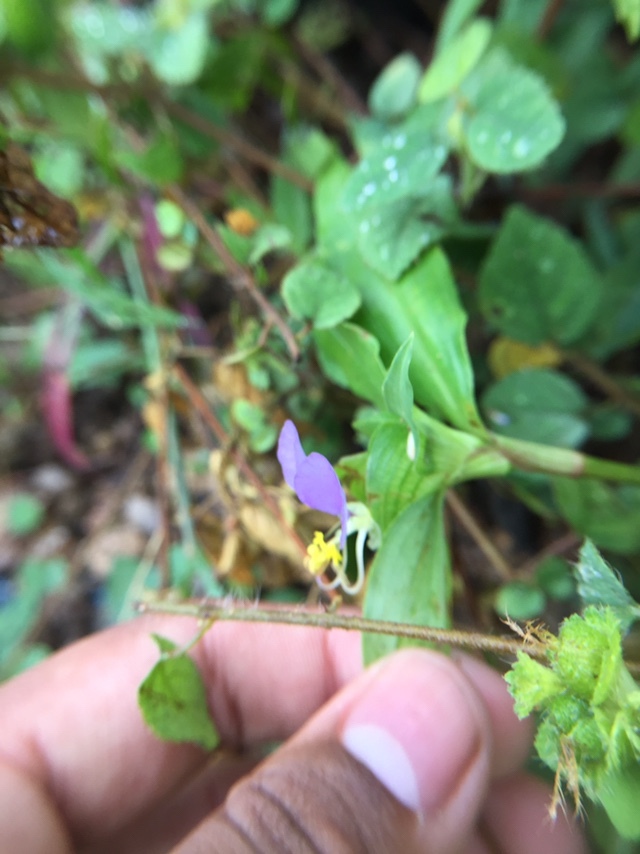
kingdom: Plantae
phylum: Tracheophyta
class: Liliopsida
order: Commelinales
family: Commelinaceae
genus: Commelina
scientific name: Commelina undulata
